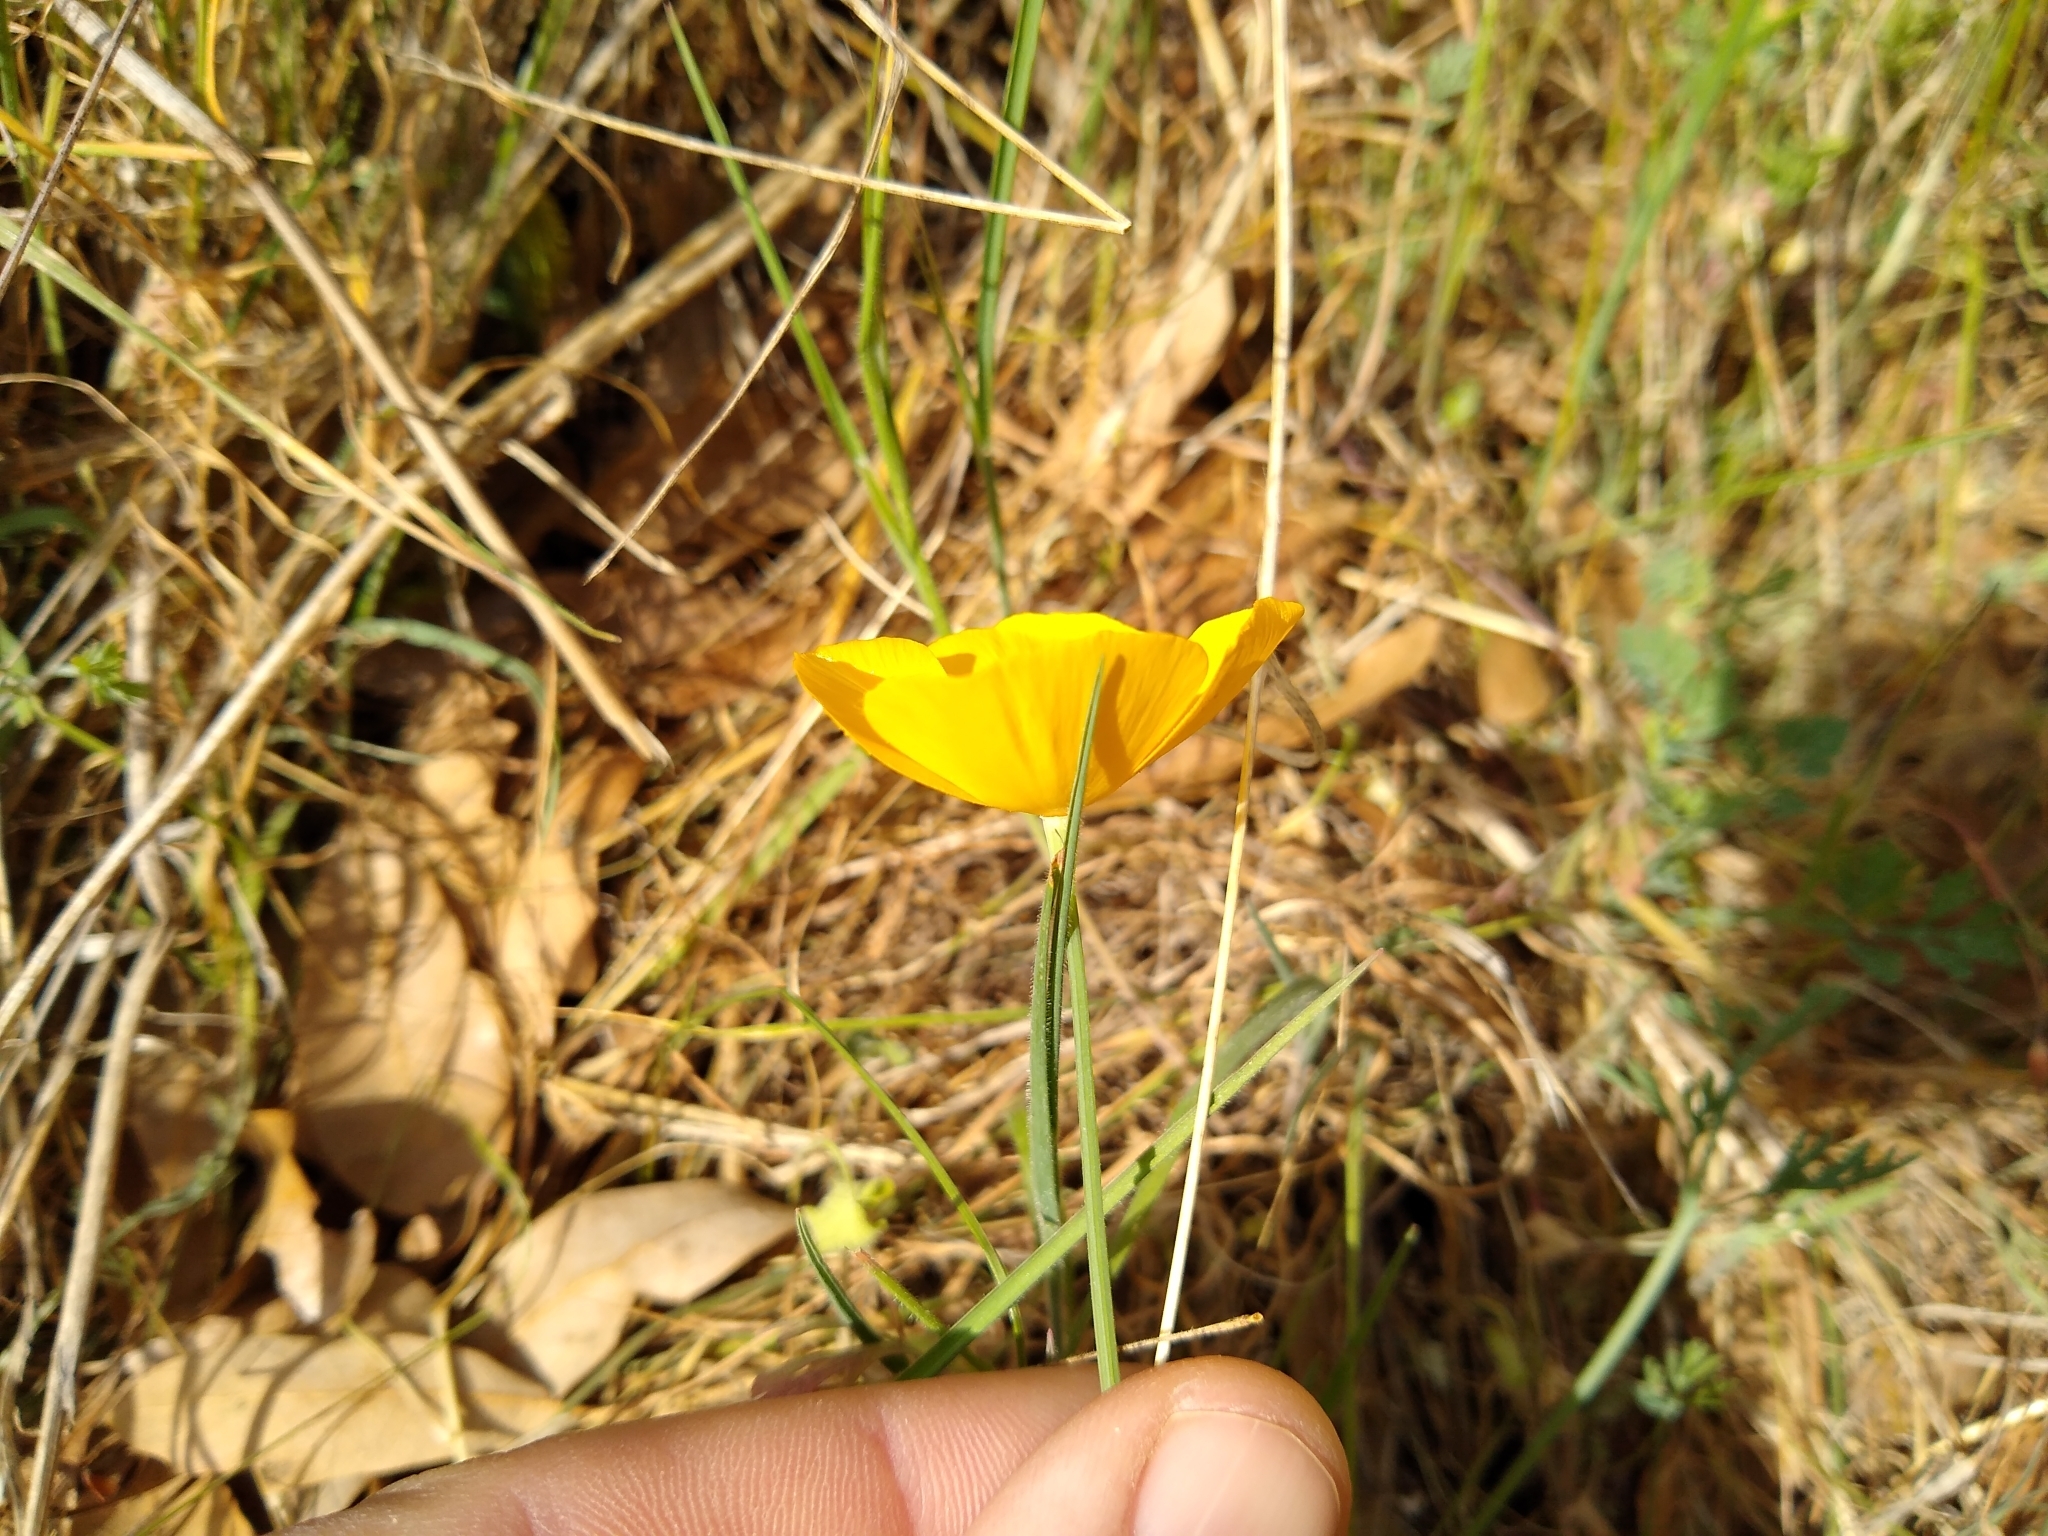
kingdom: Plantae
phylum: Tracheophyta
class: Magnoliopsida
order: Ranunculales
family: Papaveraceae
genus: Eschscholzia
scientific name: Eschscholzia caespitosa
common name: Tufted california-poppy
